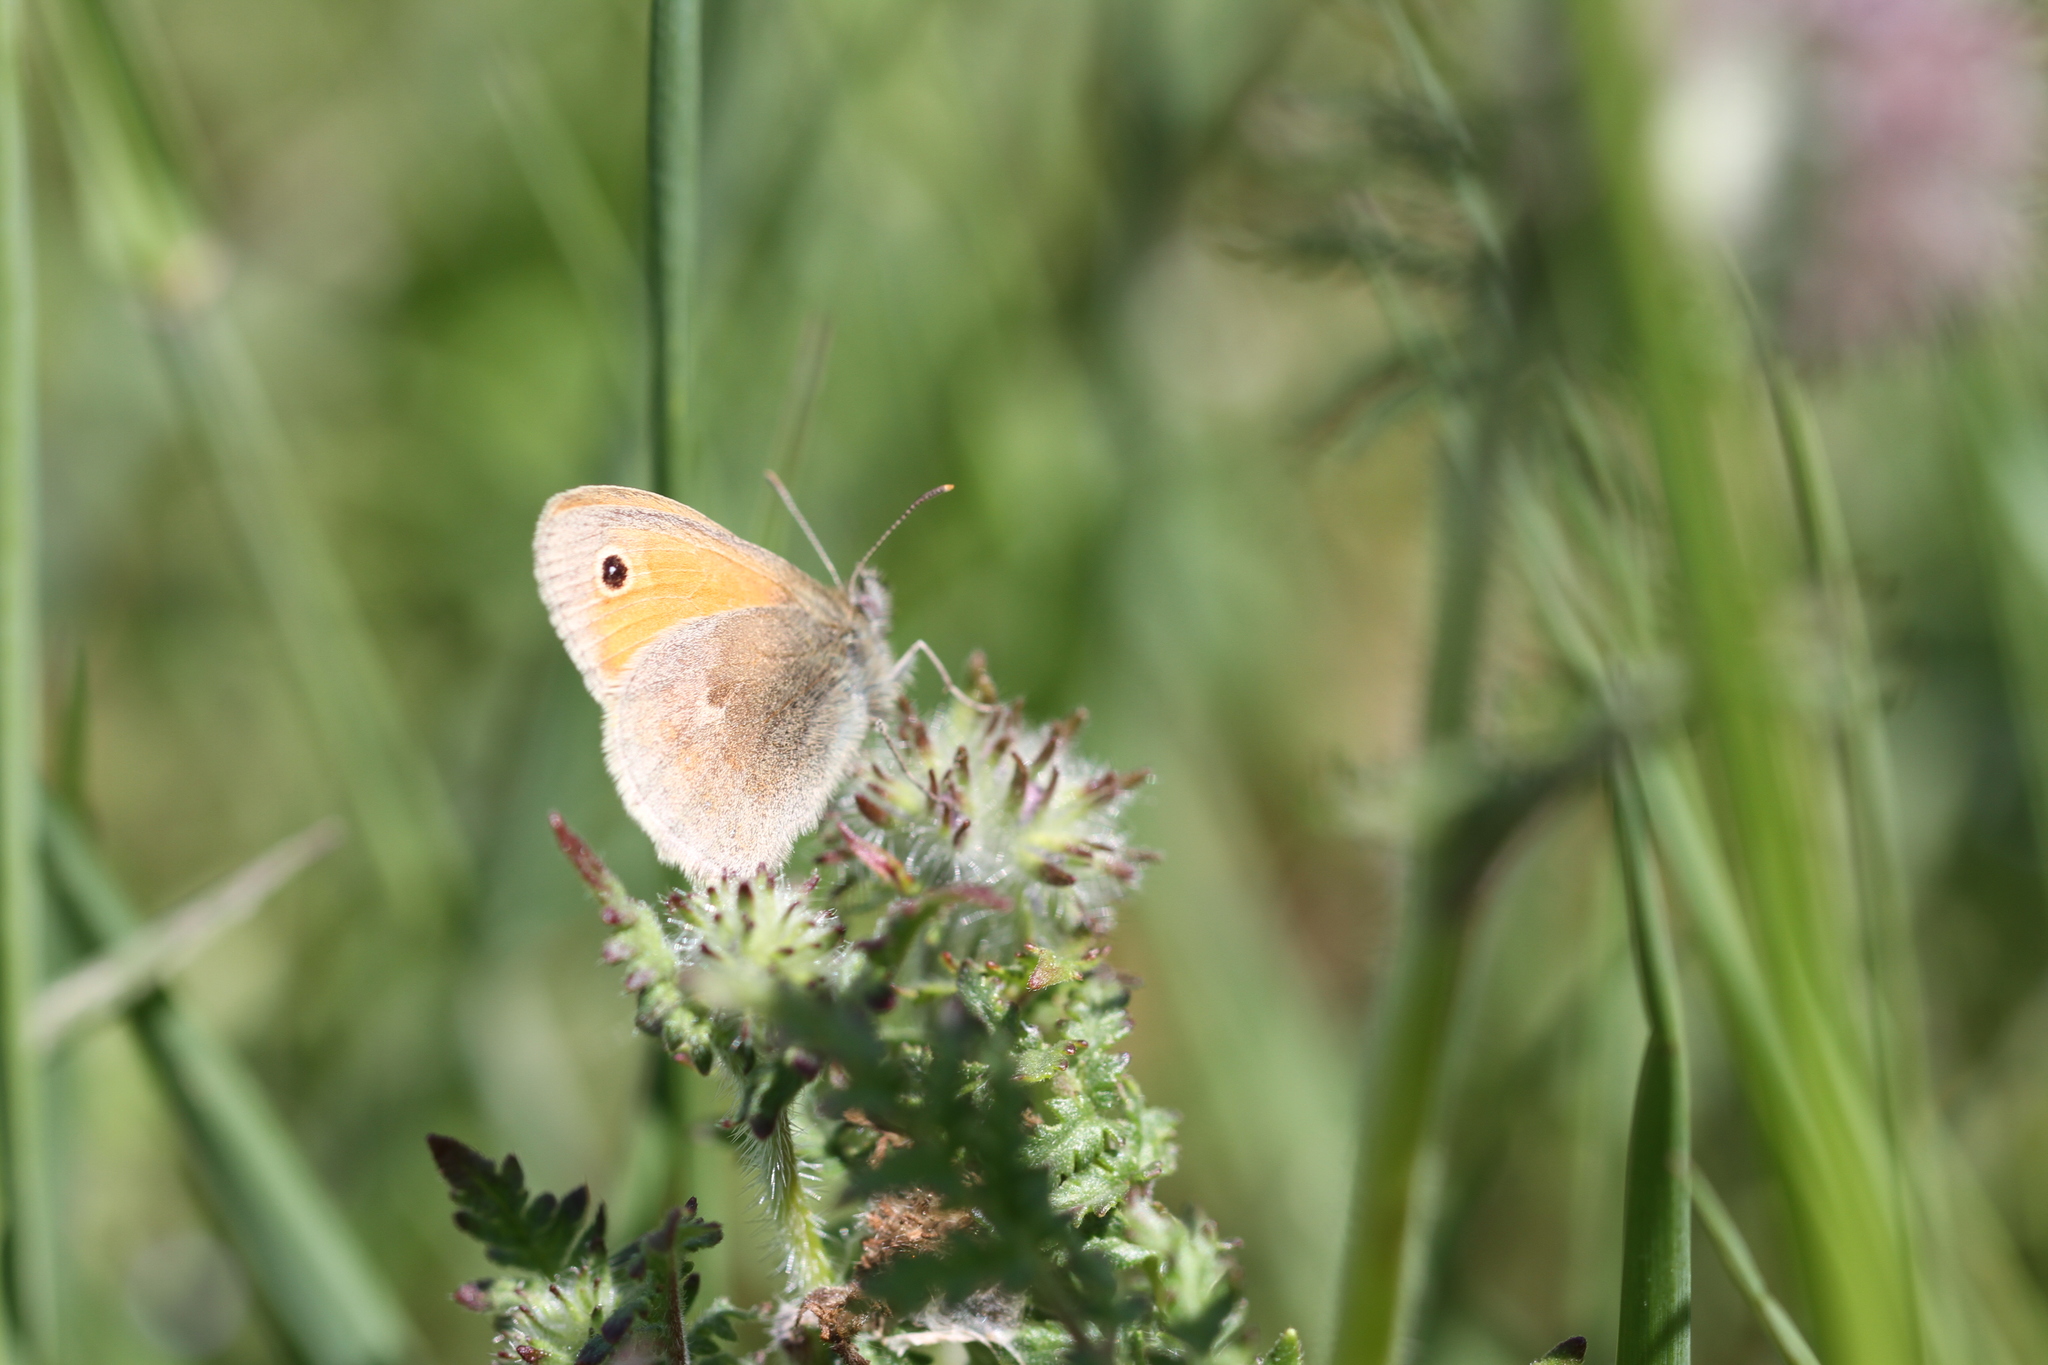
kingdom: Animalia
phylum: Arthropoda
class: Insecta
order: Lepidoptera
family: Nymphalidae
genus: Coenonympha
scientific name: Coenonympha pamphilus
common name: Small heath
